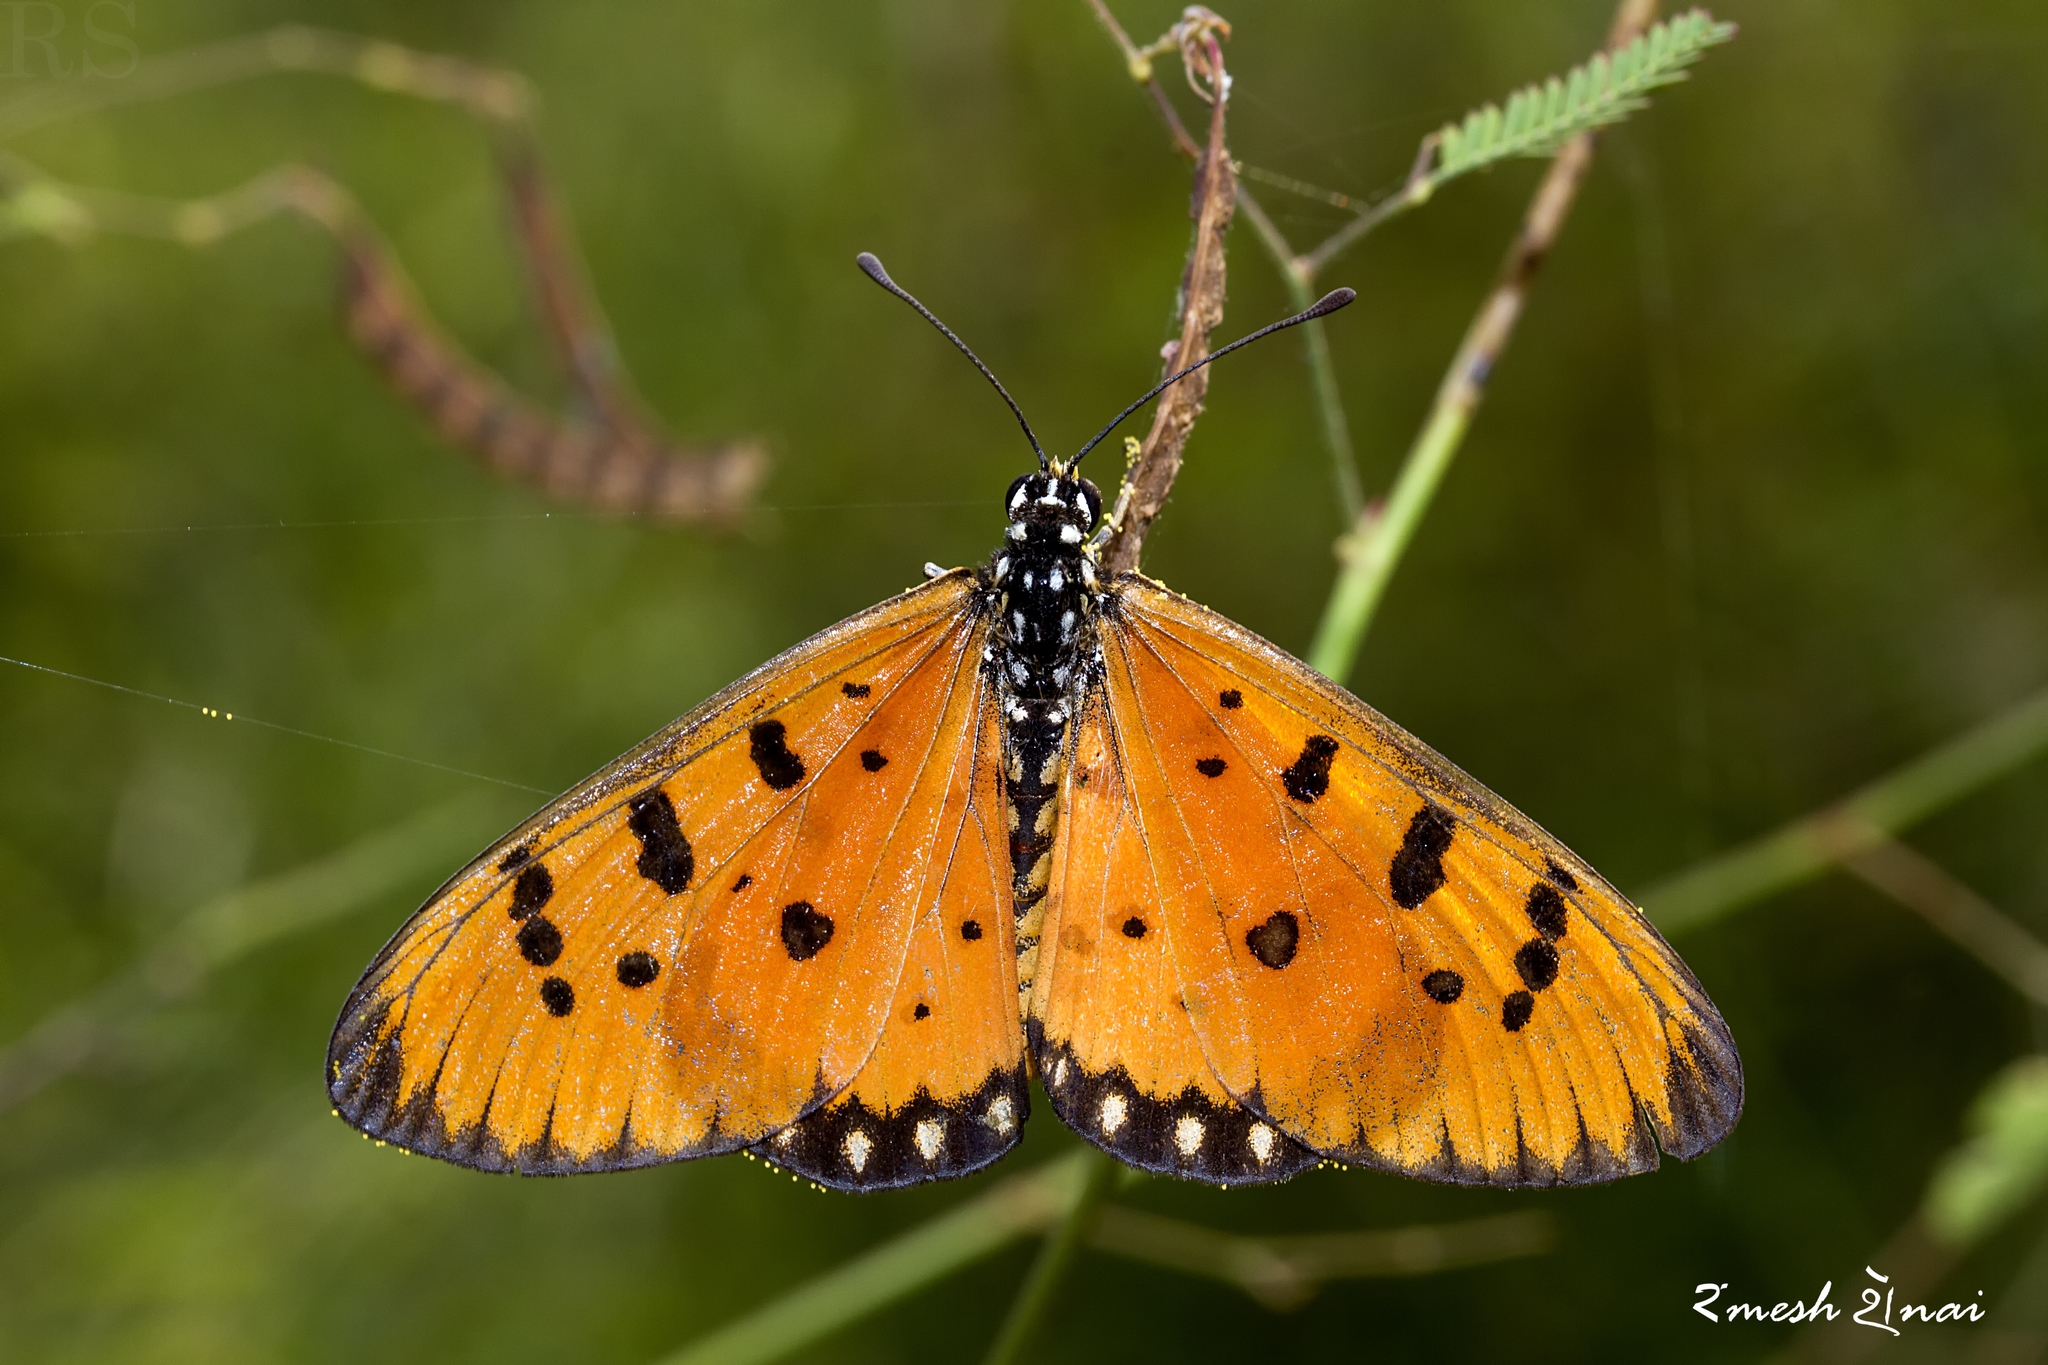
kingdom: Animalia
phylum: Arthropoda
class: Insecta
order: Lepidoptera
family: Nymphalidae
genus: Acraea
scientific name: Acraea terpsicore
